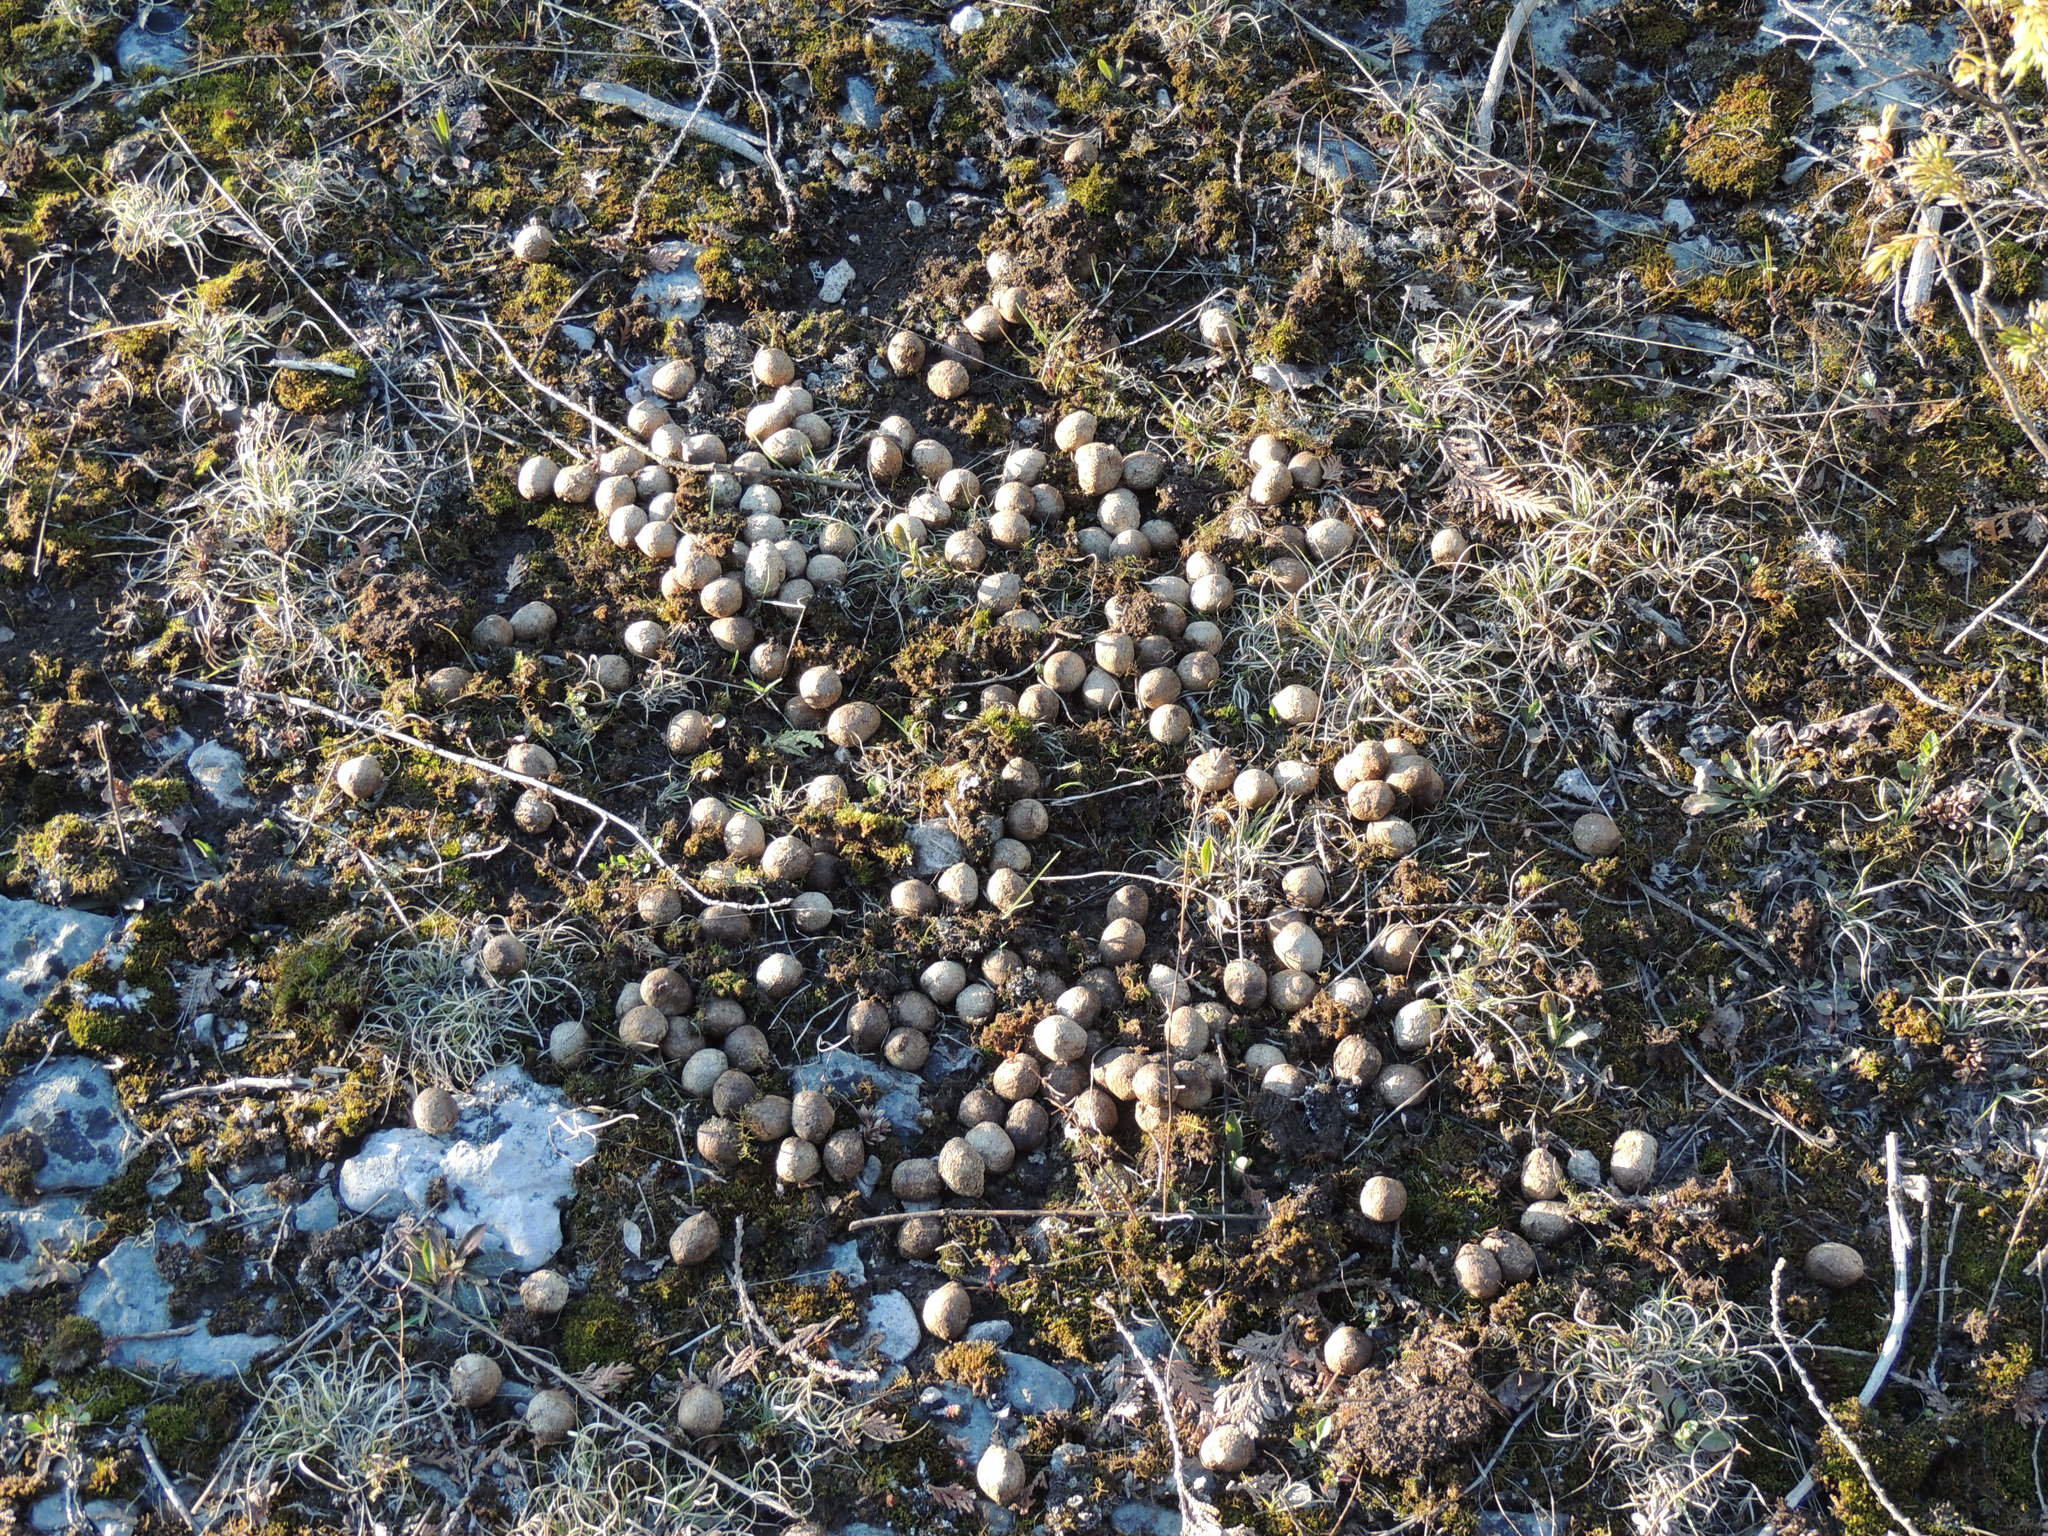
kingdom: Animalia
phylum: Chordata
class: Mammalia
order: Artiodactyla
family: Cervidae
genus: Alces
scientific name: Alces alces
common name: Moose
